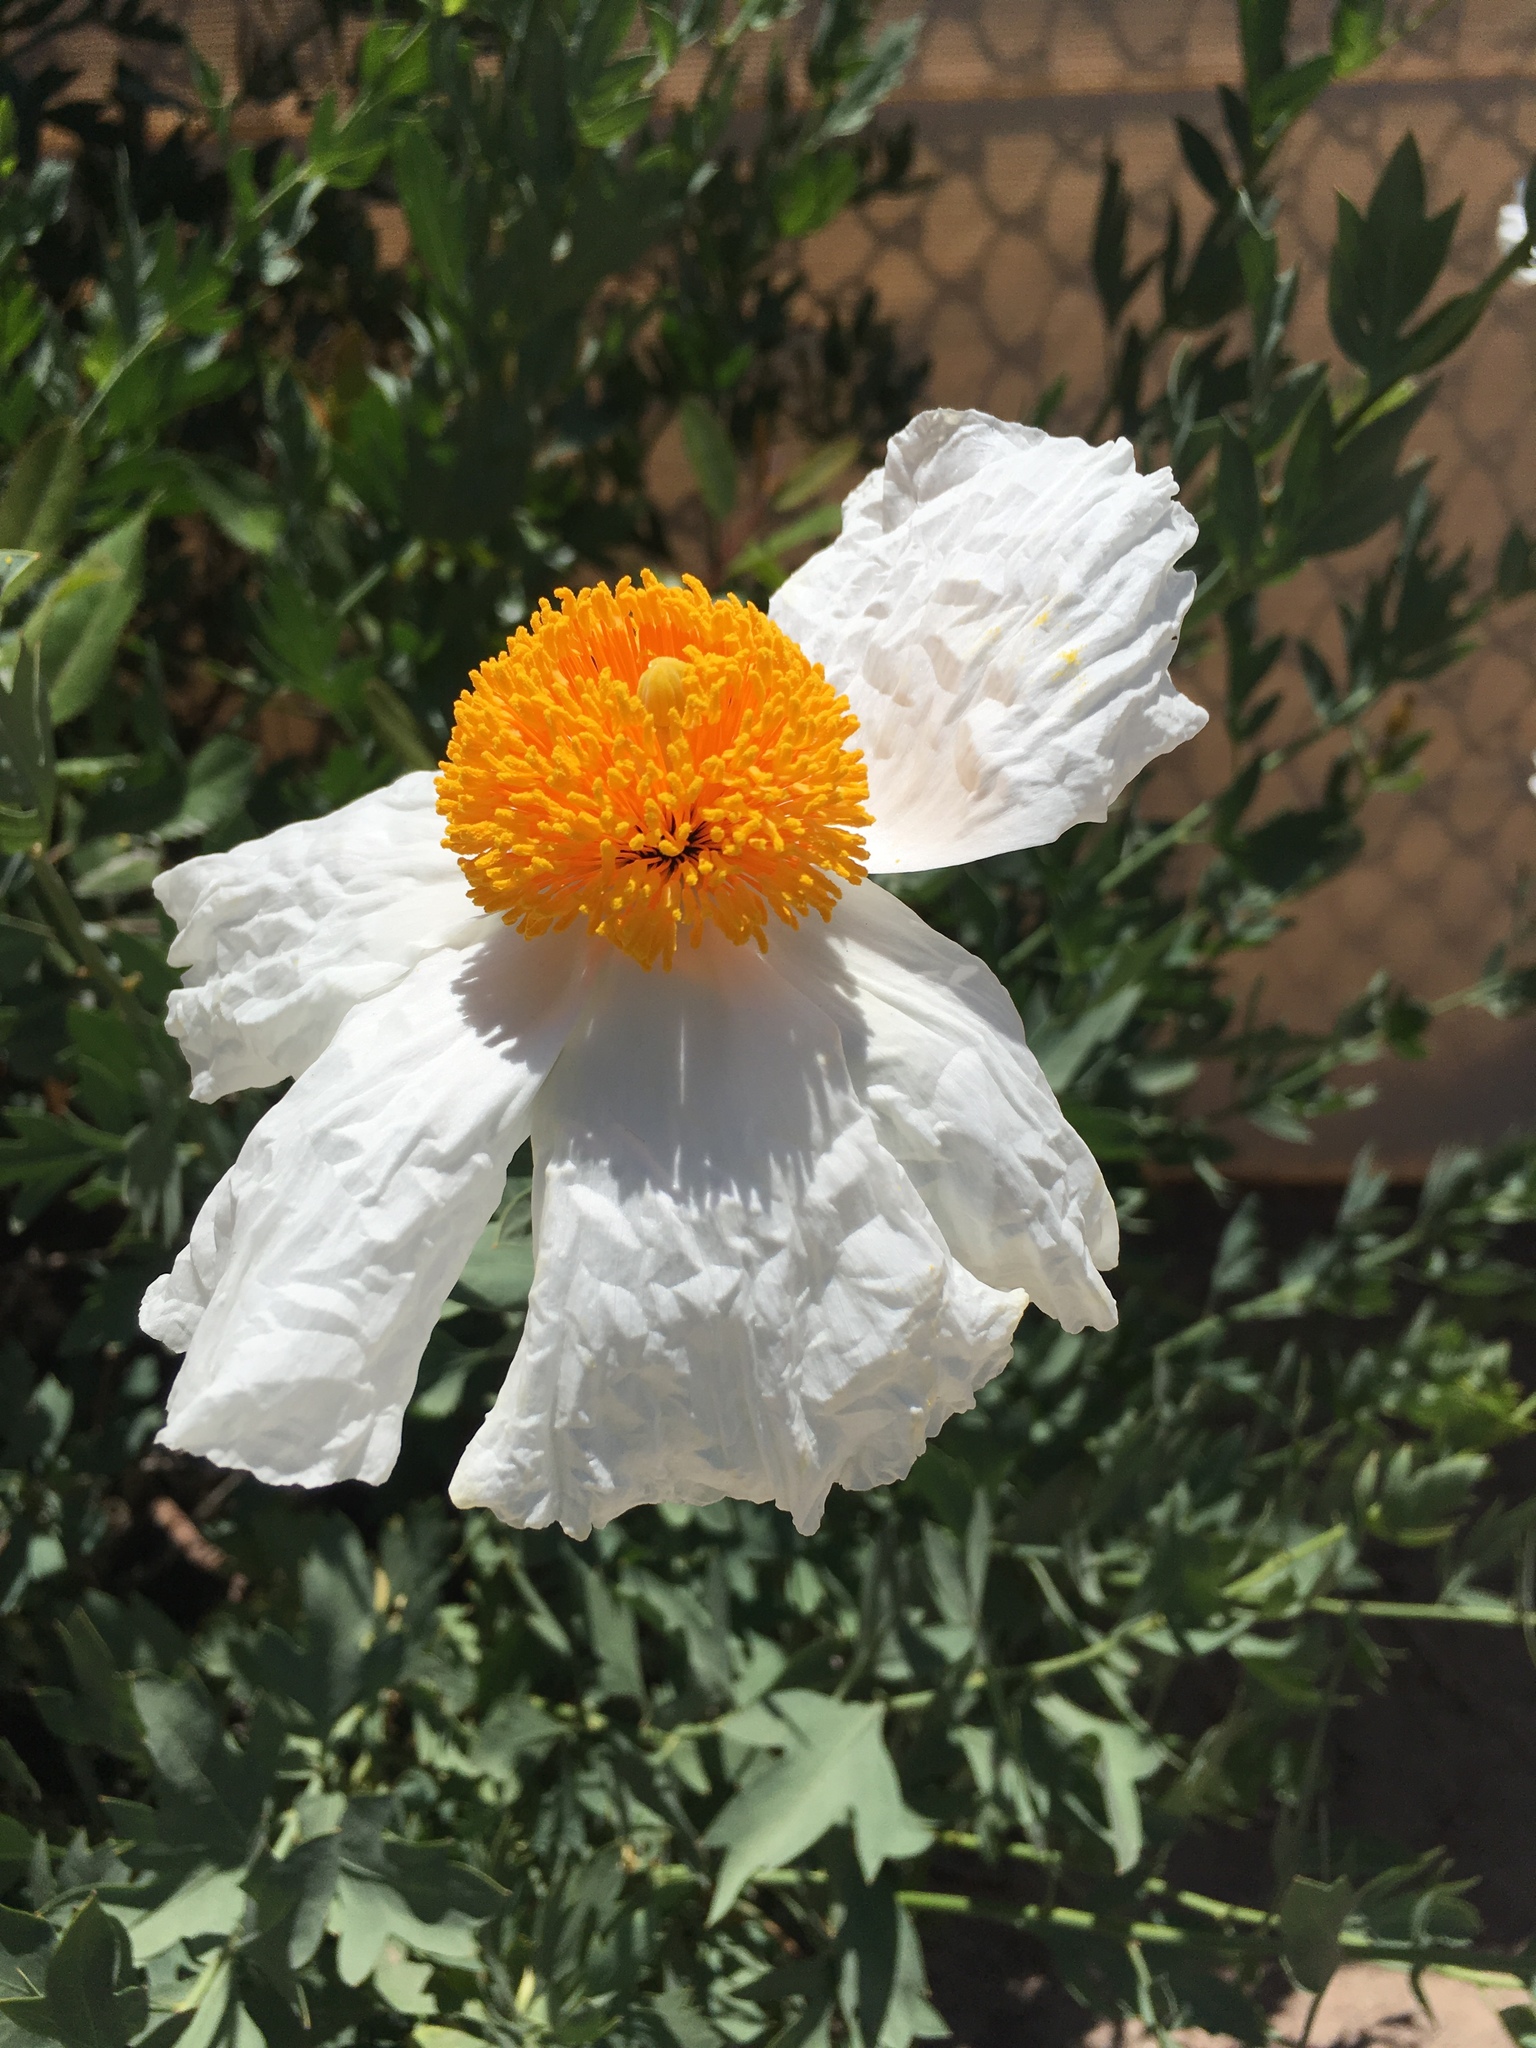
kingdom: Plantae
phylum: Tracheophyta
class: Magnoliopsida
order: Ranunculales
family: Papaveraceae
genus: Romneya
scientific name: Romneya coulteri
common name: California tree-poppy
